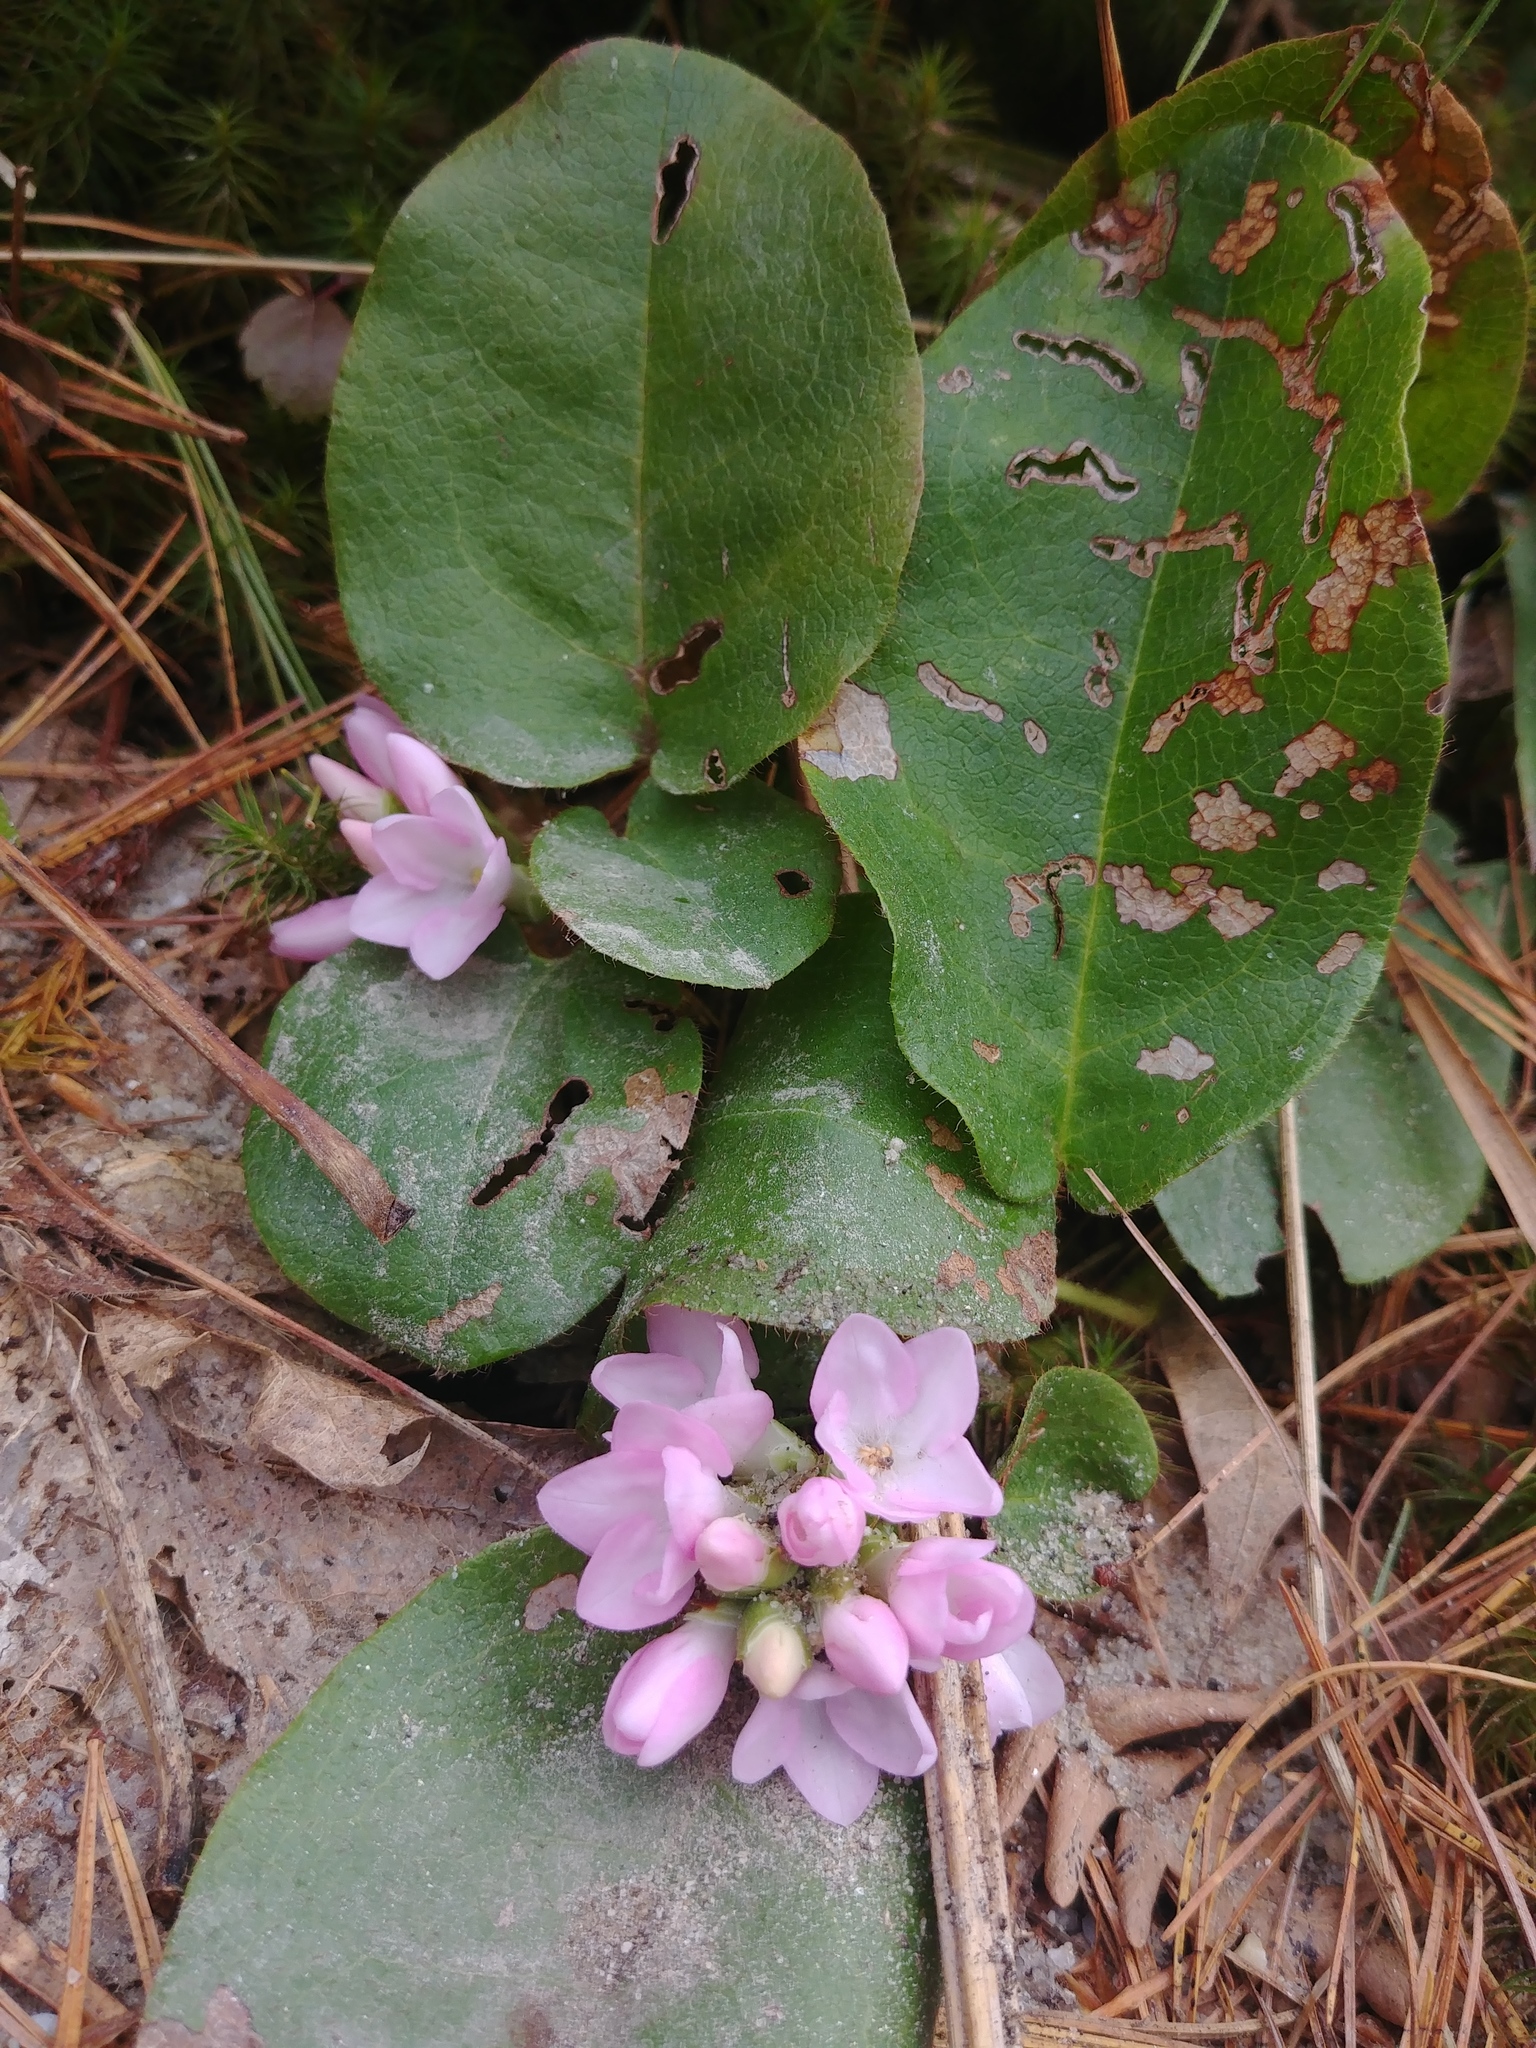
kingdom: Plantae
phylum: Tracheophyta
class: Magnoliopsida
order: Ericales
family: Ericaceae
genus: Epigaea
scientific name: Epigaea repens
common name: Gravelroot
